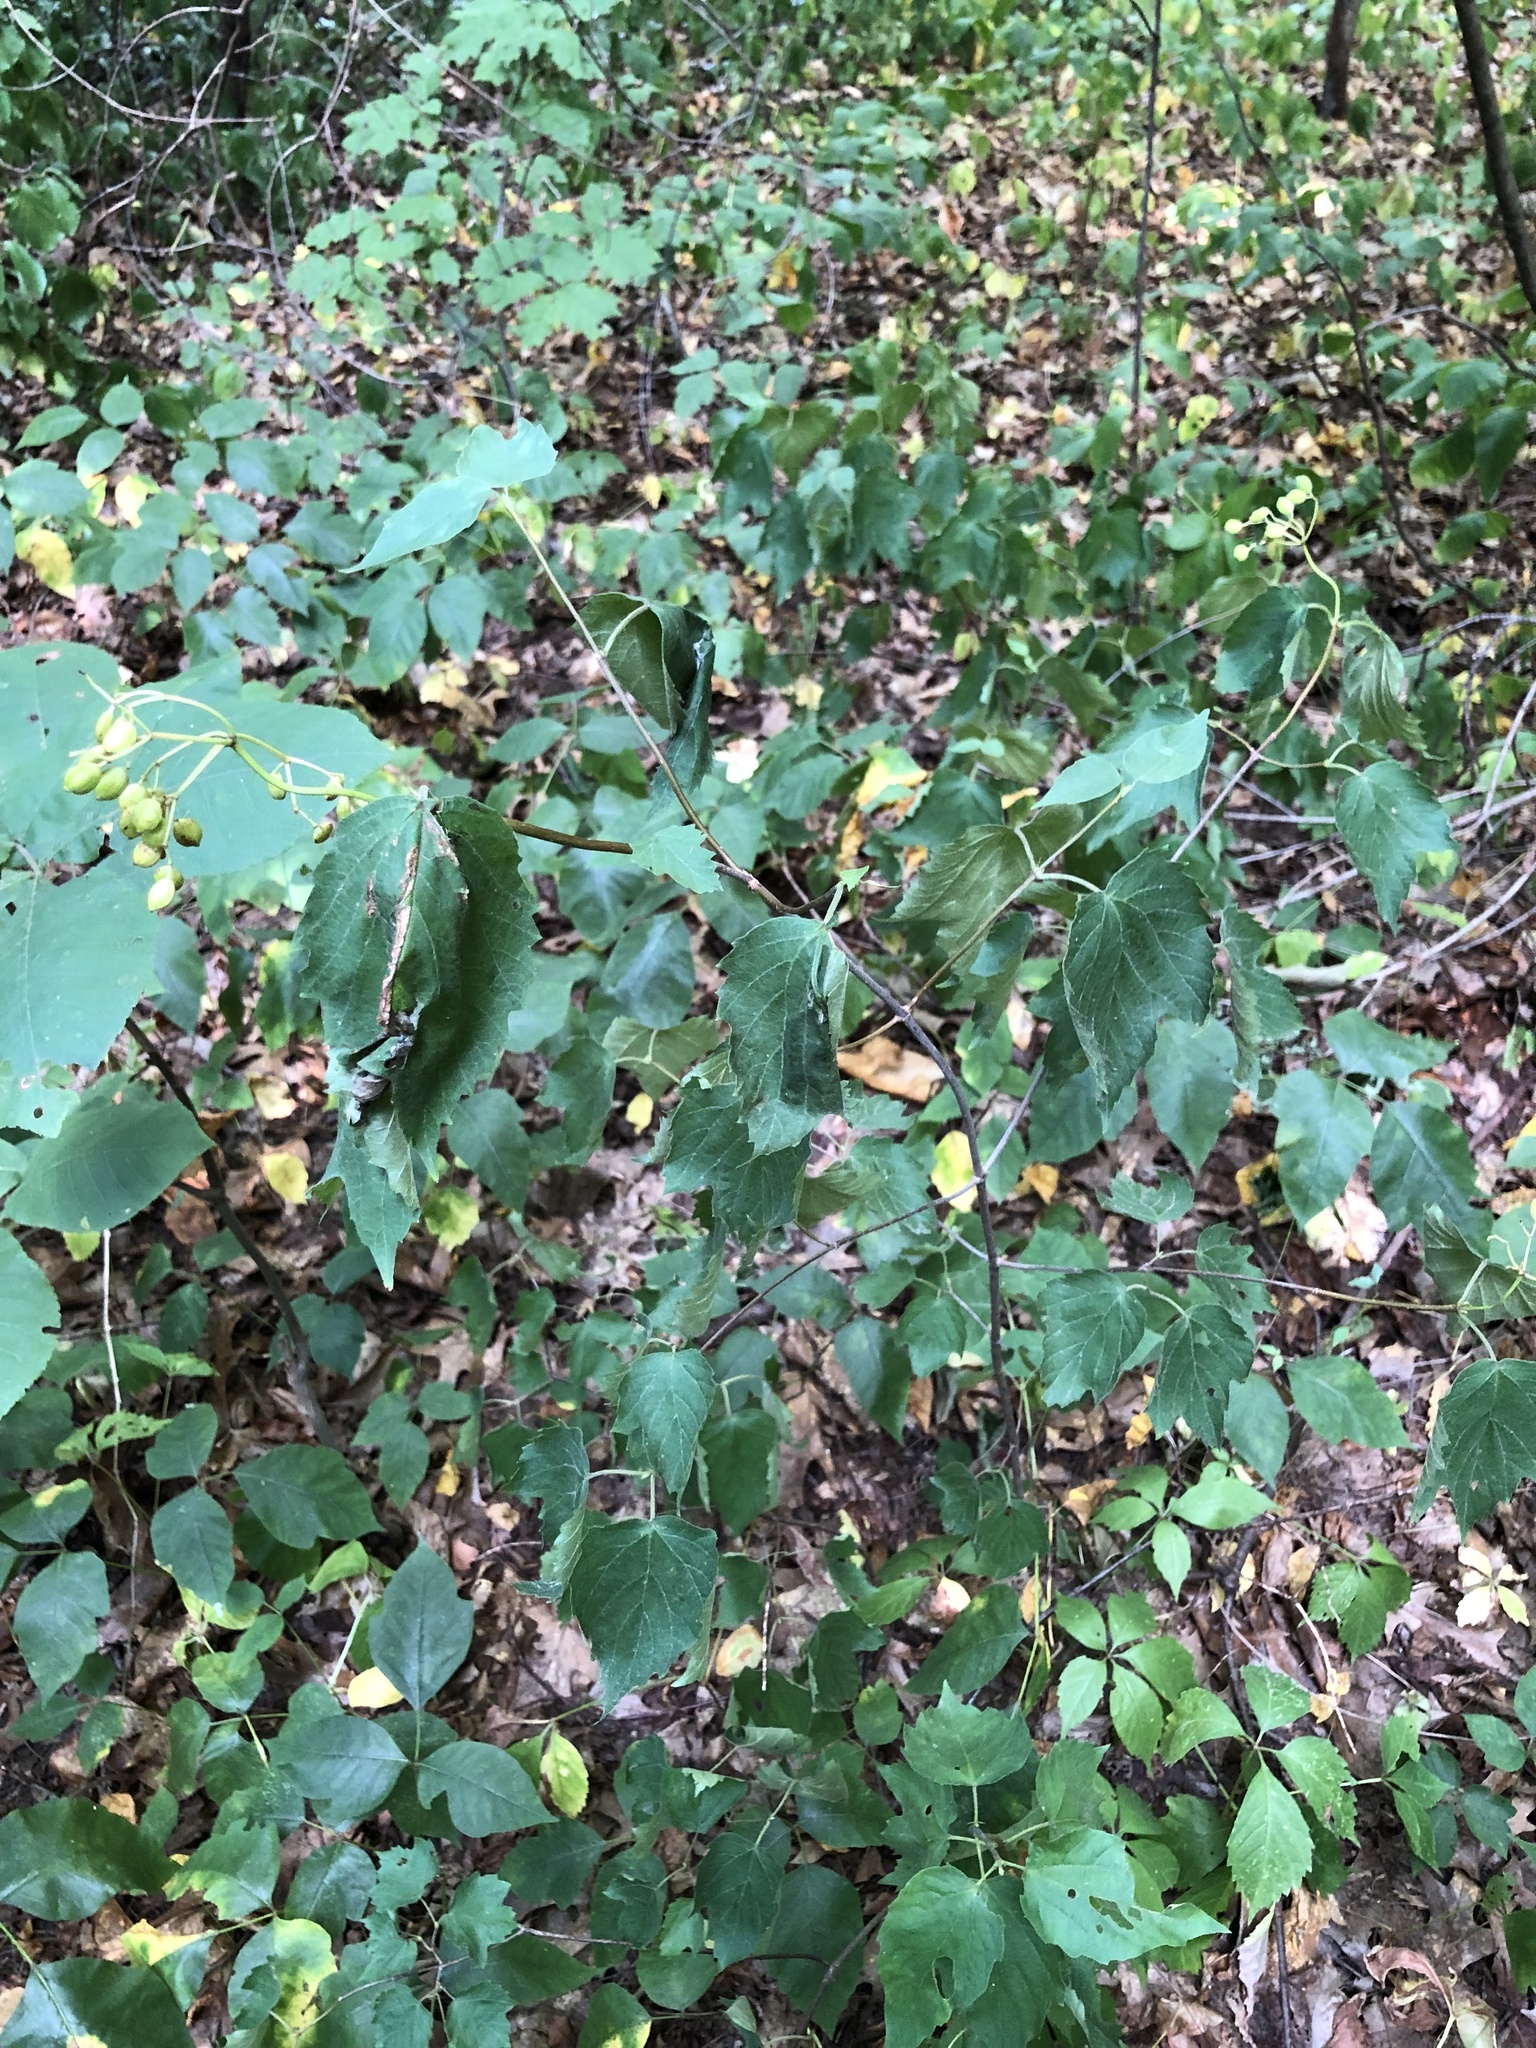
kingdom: Plantae
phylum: Tracheophyta
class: Magnoliopsida
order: Dipsacales
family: Viburnaceae
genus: Viburnum
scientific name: Viburnum acerifolium
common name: Dockmackie
